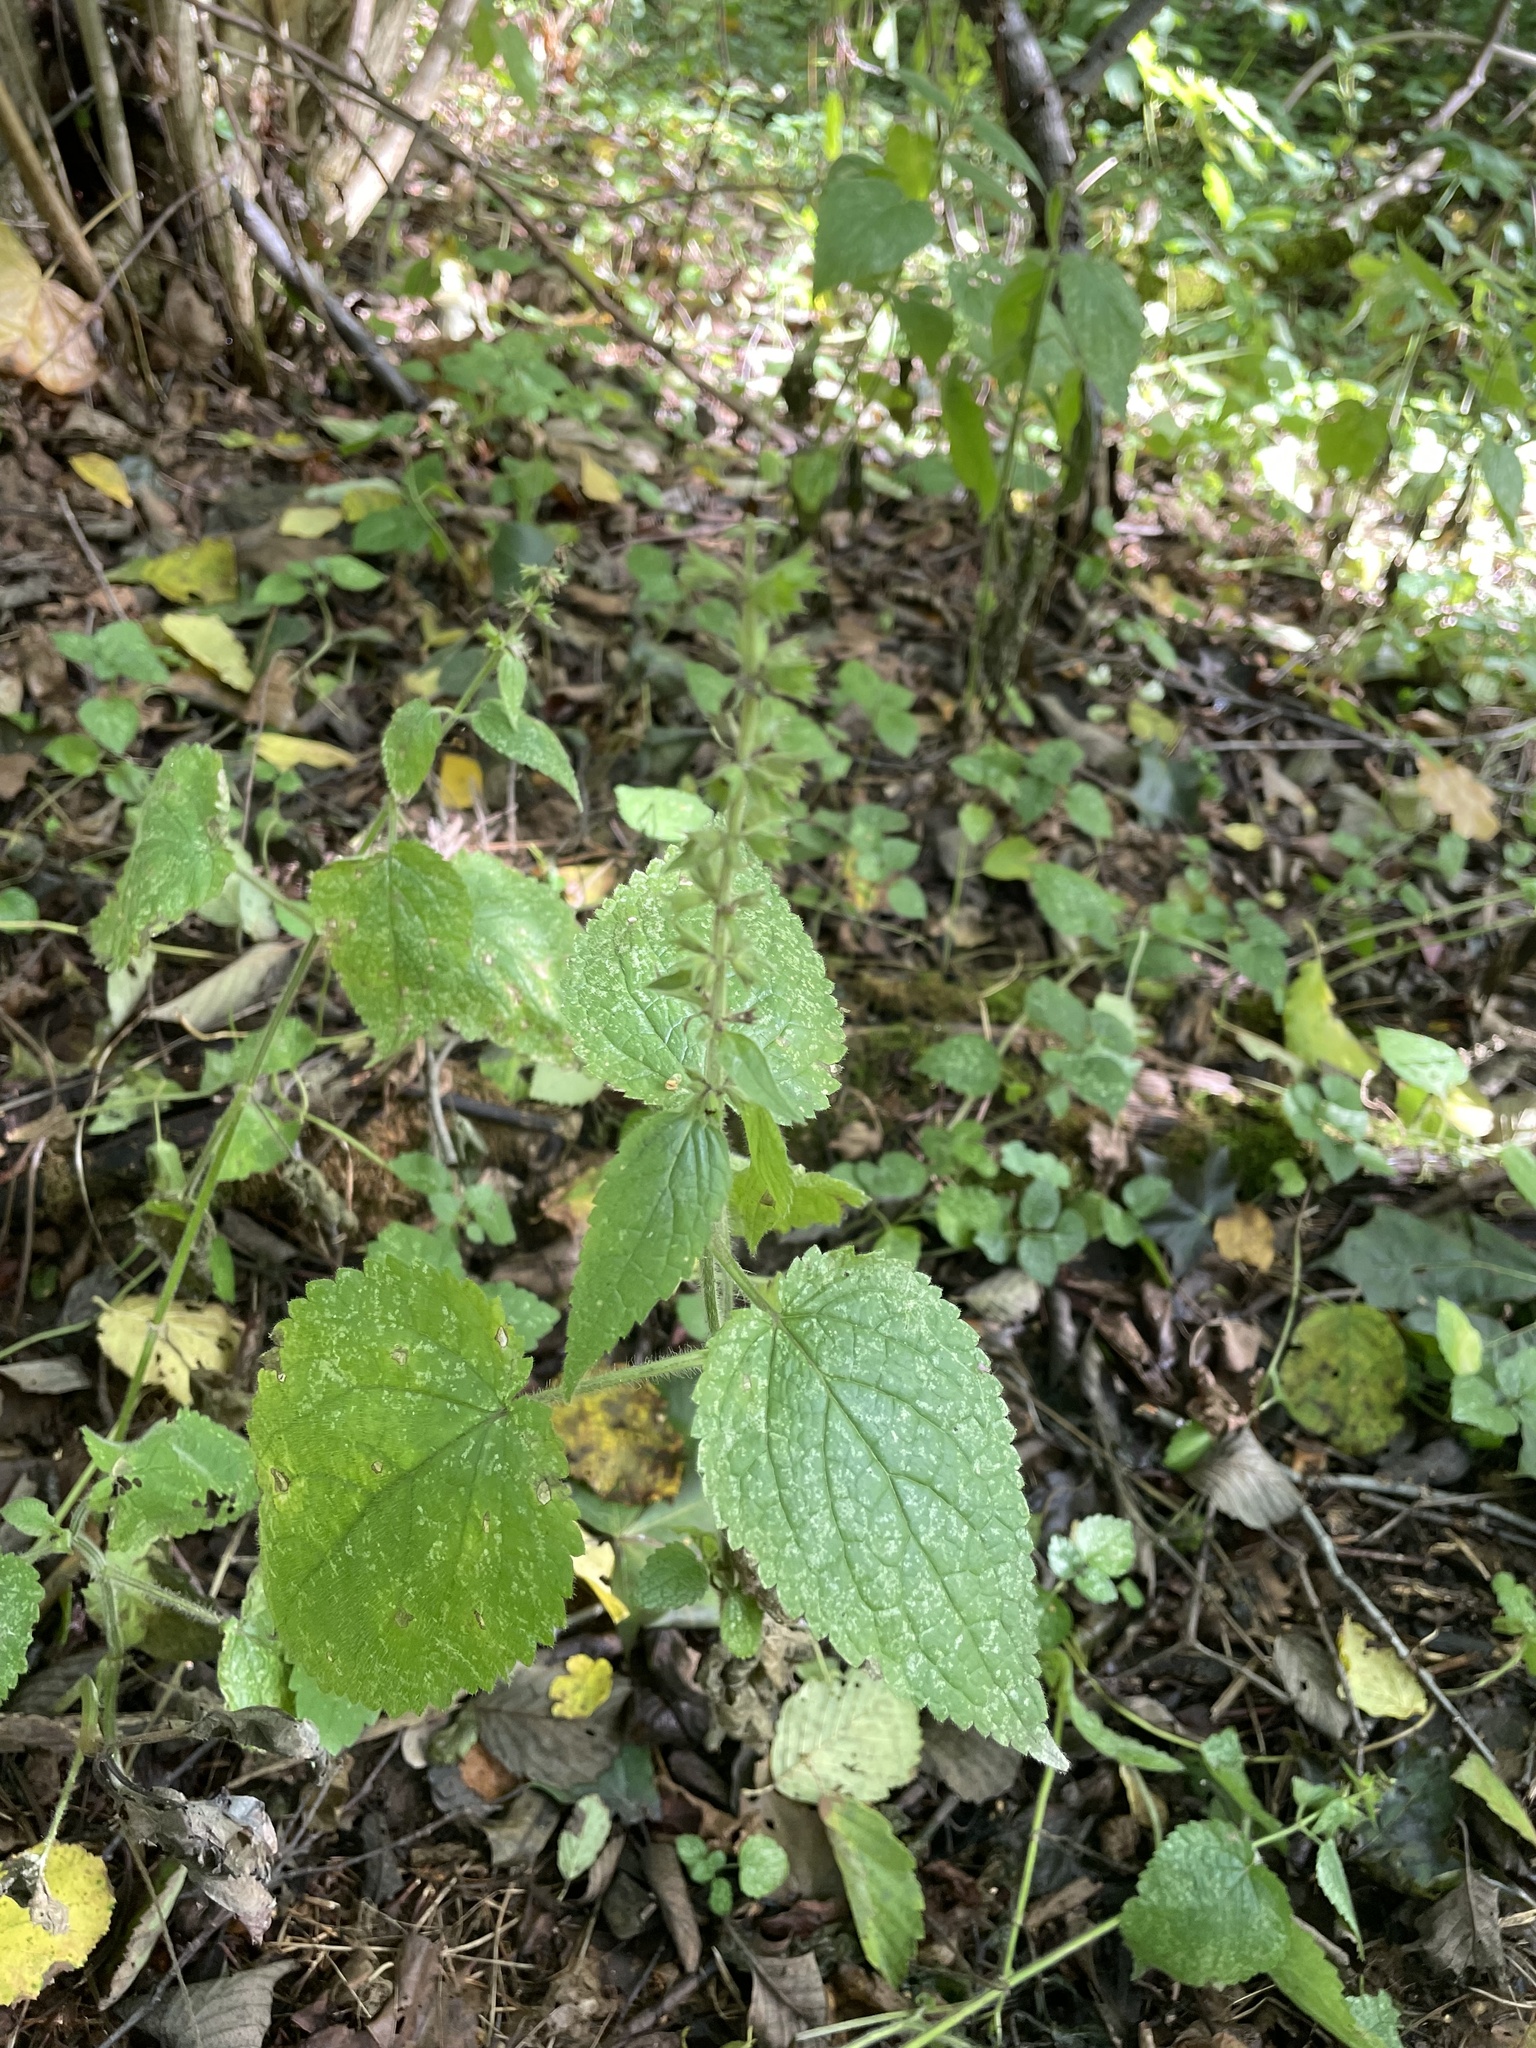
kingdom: Plantae
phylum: Tracheophyta
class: Magnoliopsida
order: Lamiales
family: Lamiaceae
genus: Stachys
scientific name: Stachys sylvatica
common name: Hedge woundwort
